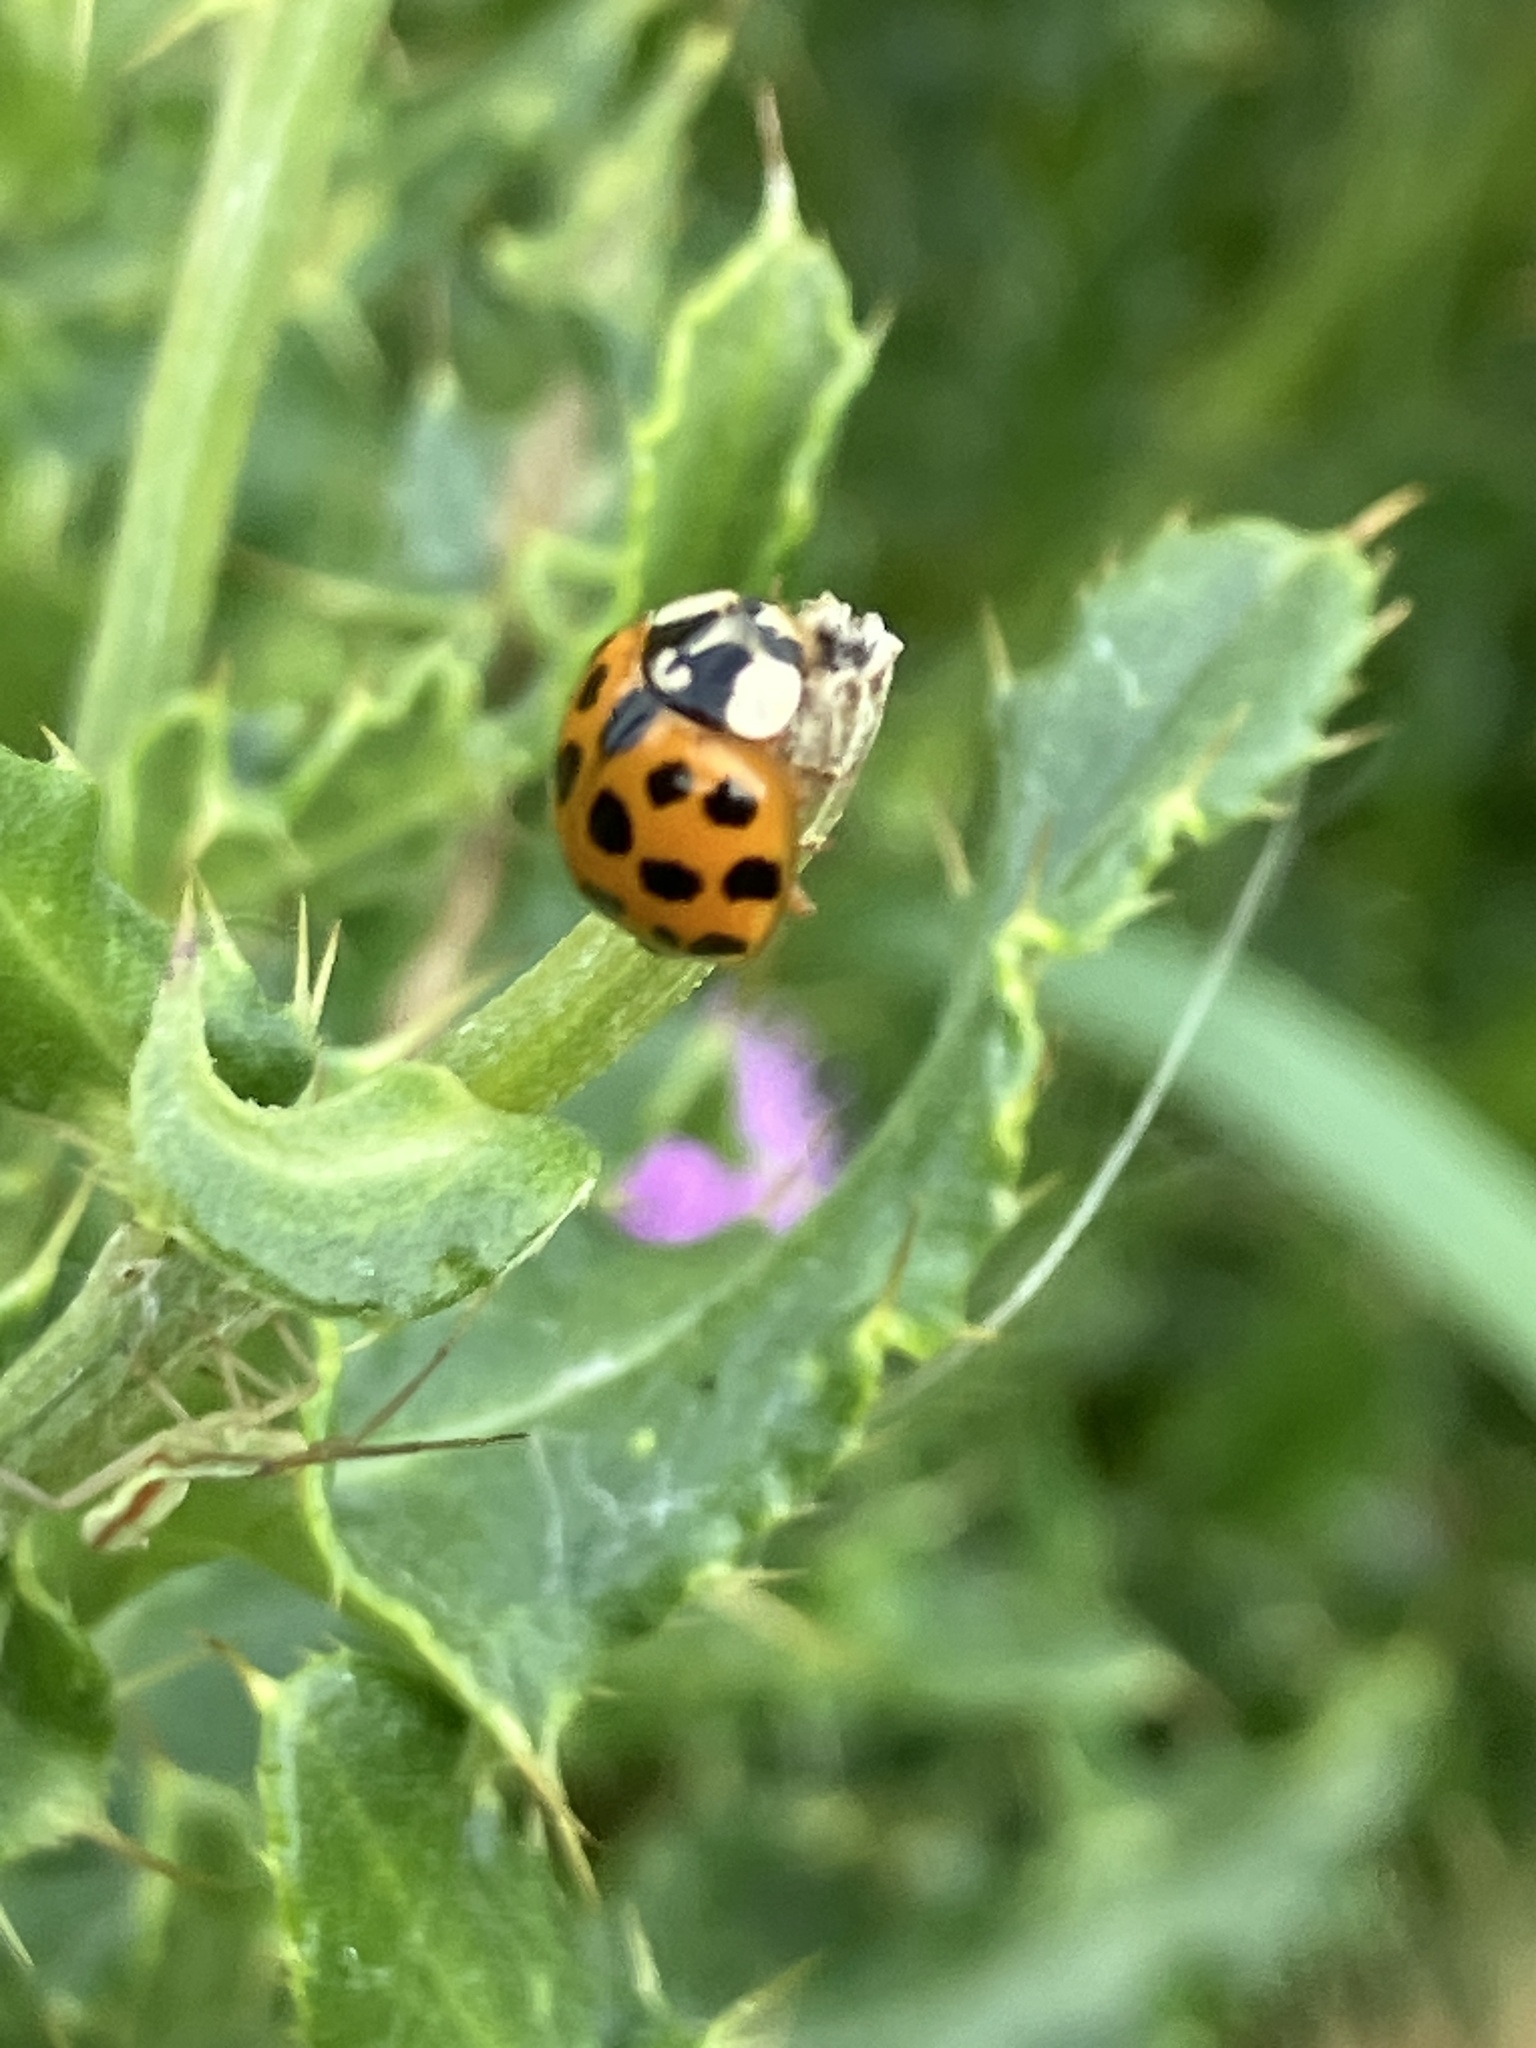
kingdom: Animalia
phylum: Arthropoda
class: Insecta
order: Coleoptera
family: Coccinellidae
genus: Harmonia
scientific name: Harmonia axyridis
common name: Harlequin ladybird
